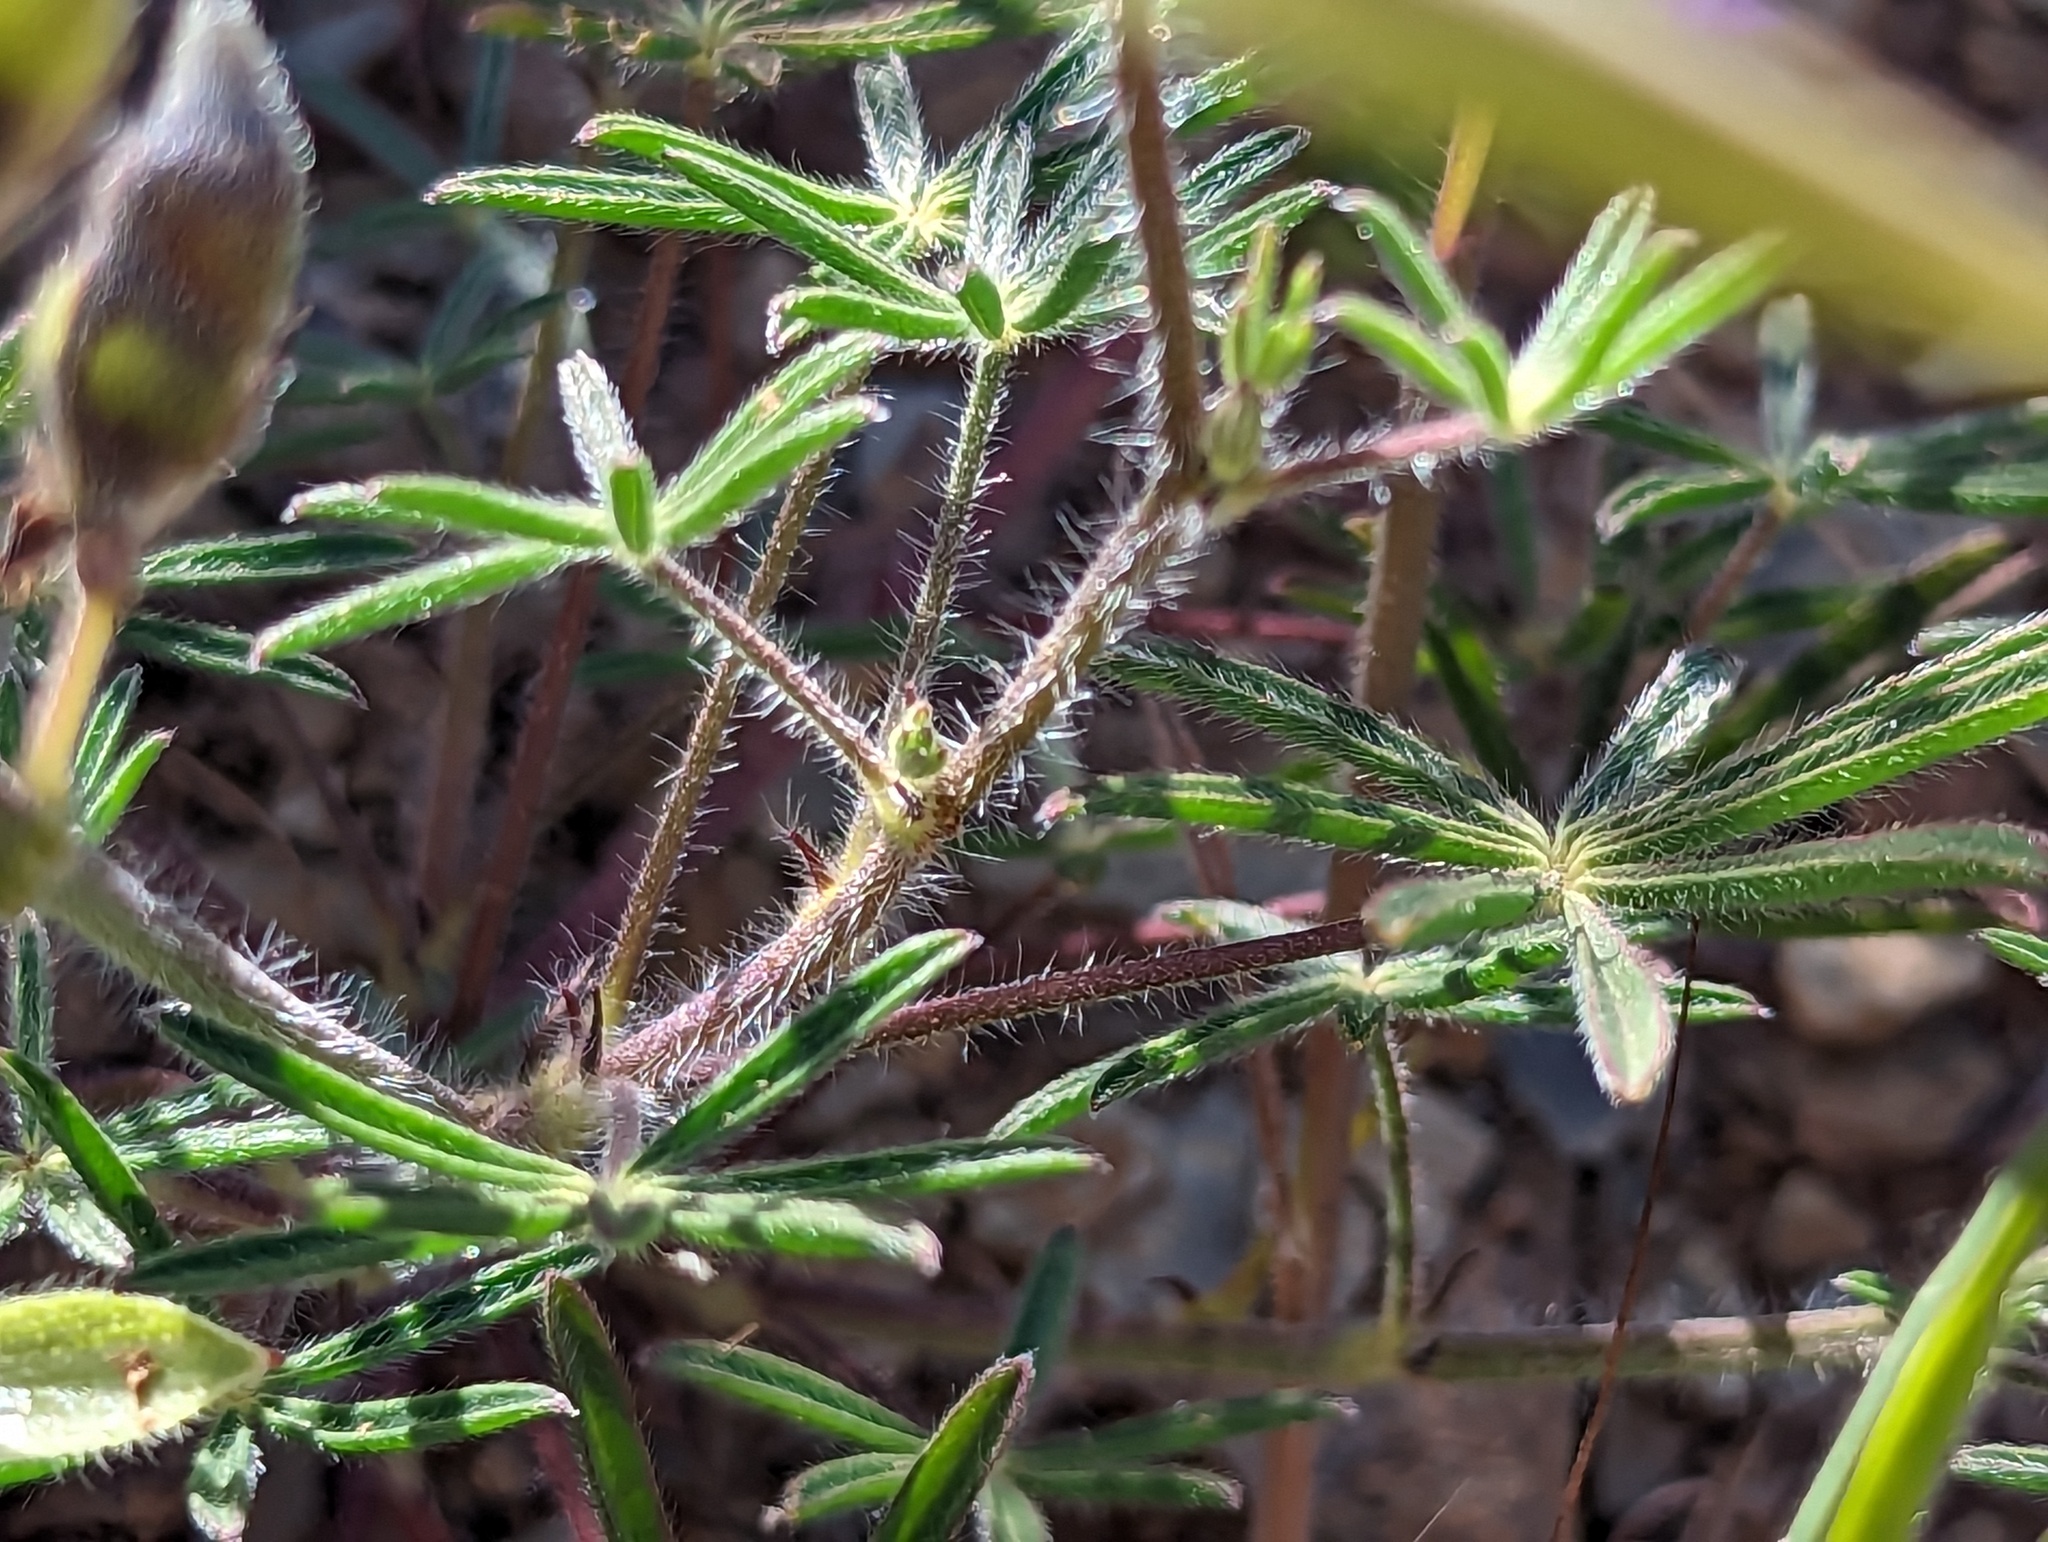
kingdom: Plantae
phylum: Tracheophyta
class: Magnoliopsida
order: Fabales
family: Fabaceae
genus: Lupinus
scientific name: Lupinus bicolor
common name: Miniature lupine
